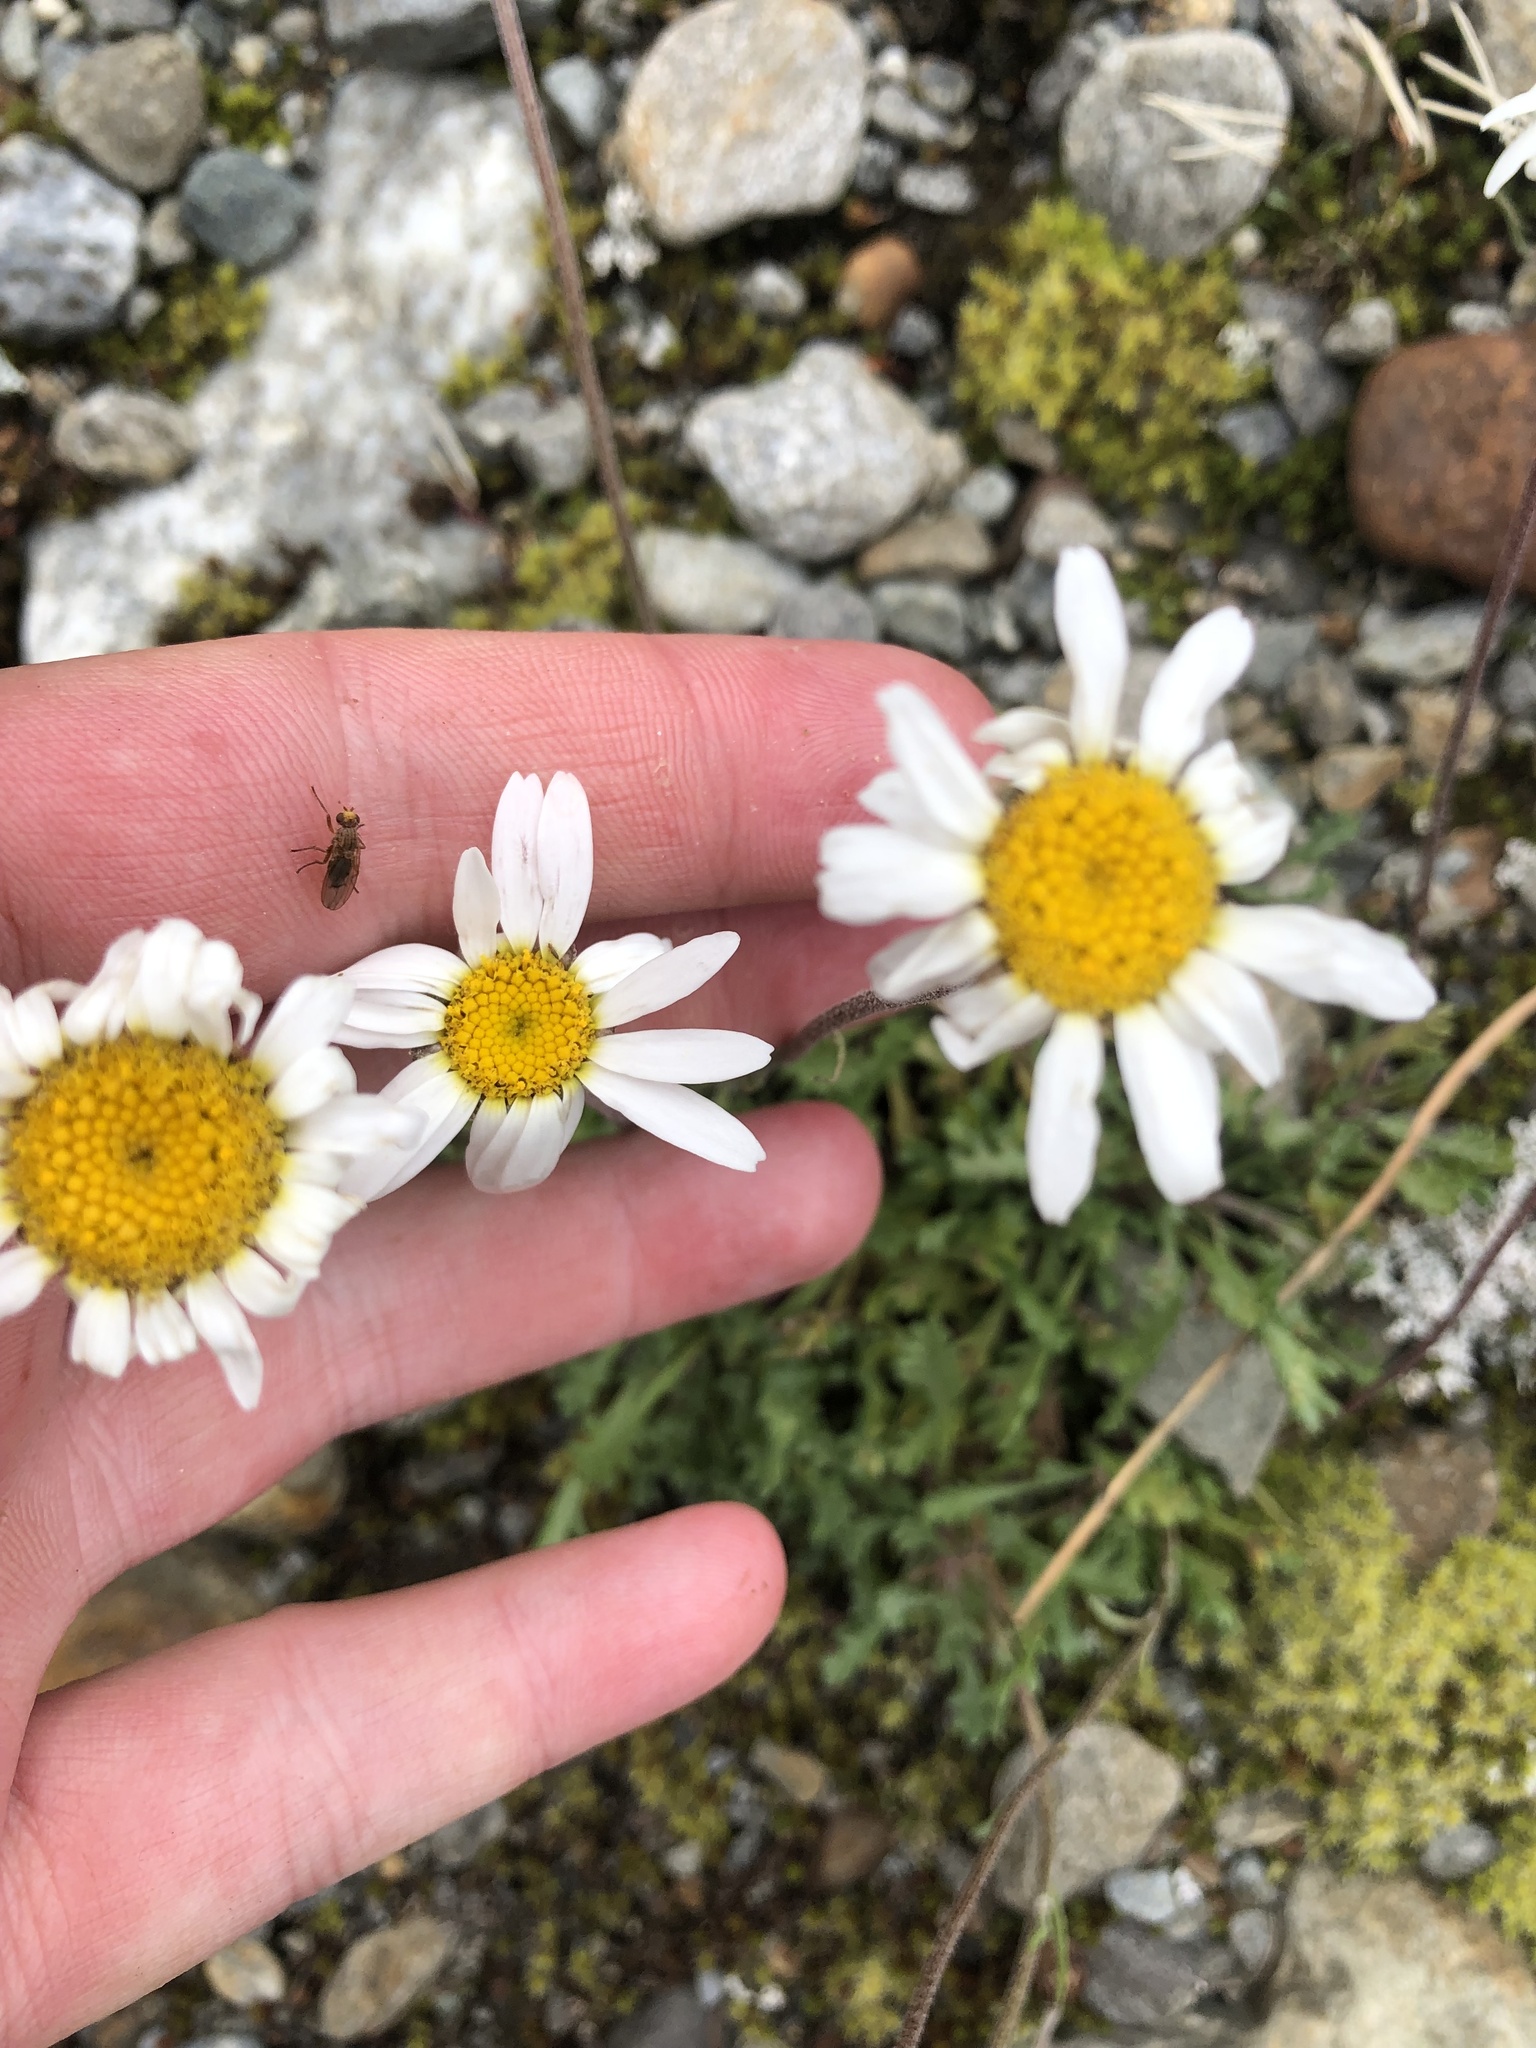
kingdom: Plantae
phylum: Tracheophyta
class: Magnoliopsida
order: Asterales
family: Asteraceae
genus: Leucanthemopsis
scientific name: Leucanthemopsis alpina
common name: Alpine moon daisy
